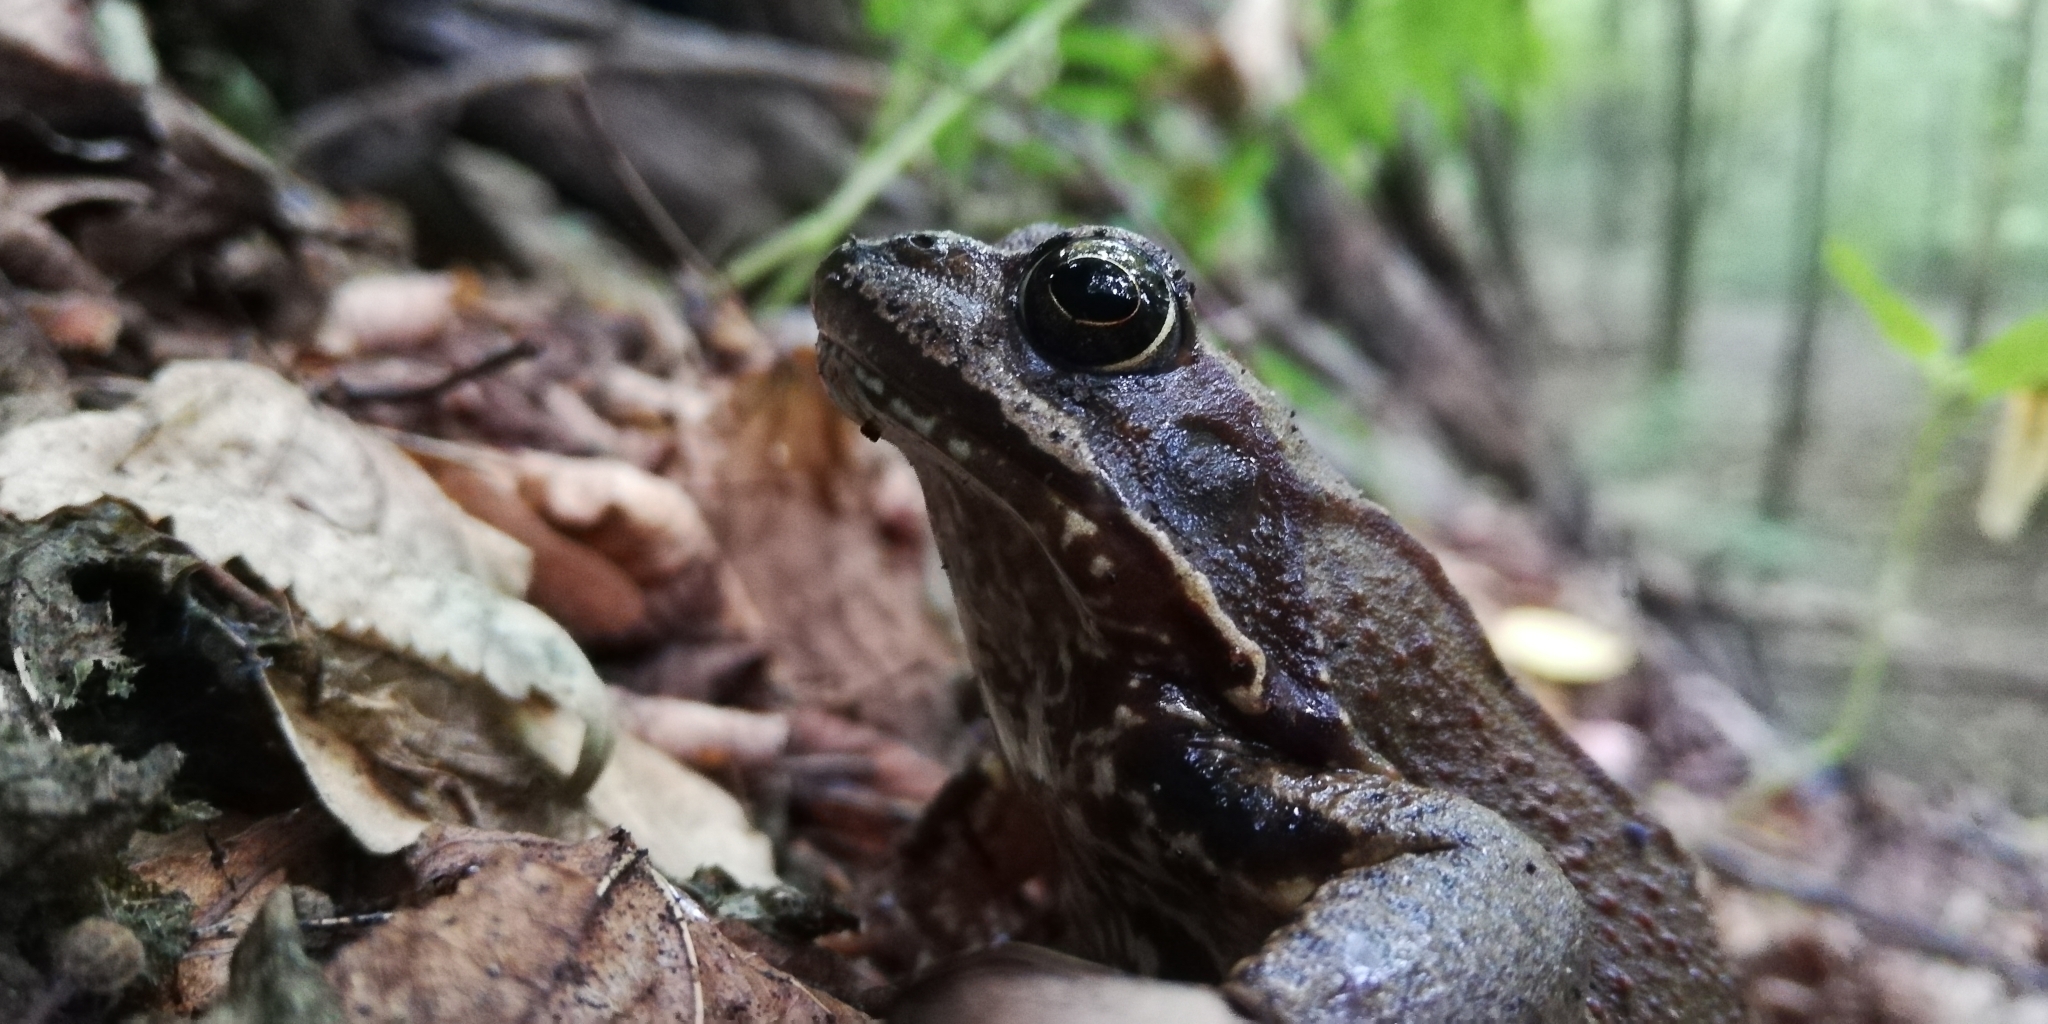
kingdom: Animalia
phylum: Chordata
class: Amphibia
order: Anura
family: Ranidae
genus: Rana
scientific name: Rana temporaria
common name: Common frog
